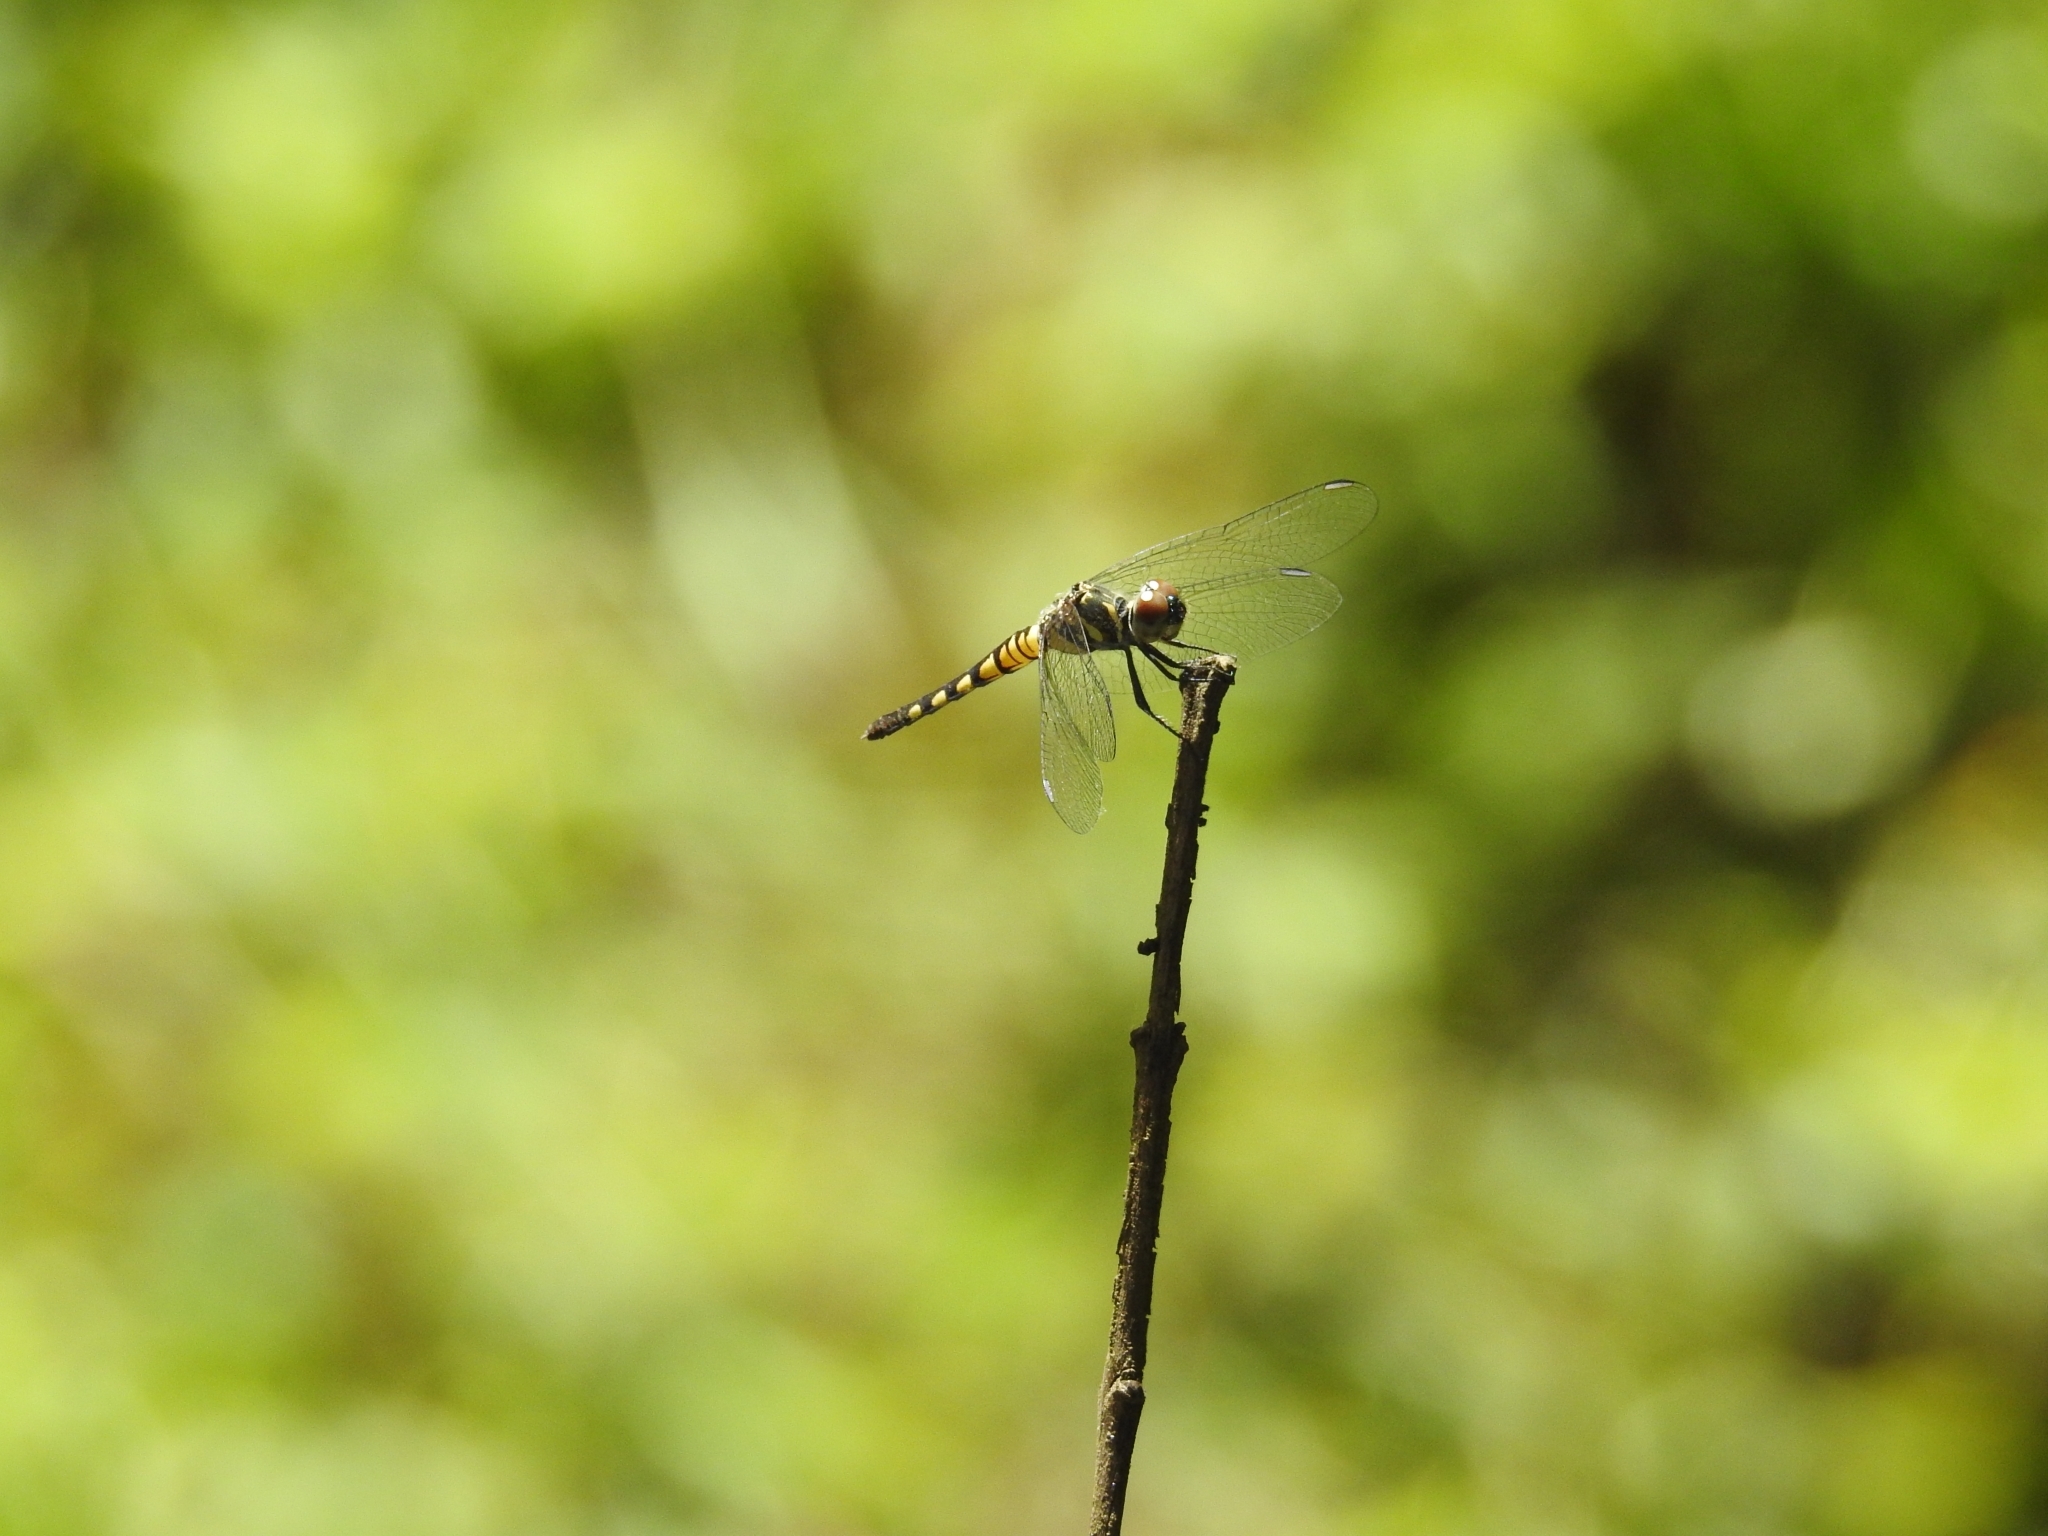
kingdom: Animalia
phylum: Arthropoda
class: Insecta
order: Odonata
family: Libellulidae
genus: Brachydiplax
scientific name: Brachydiplax sobrina
